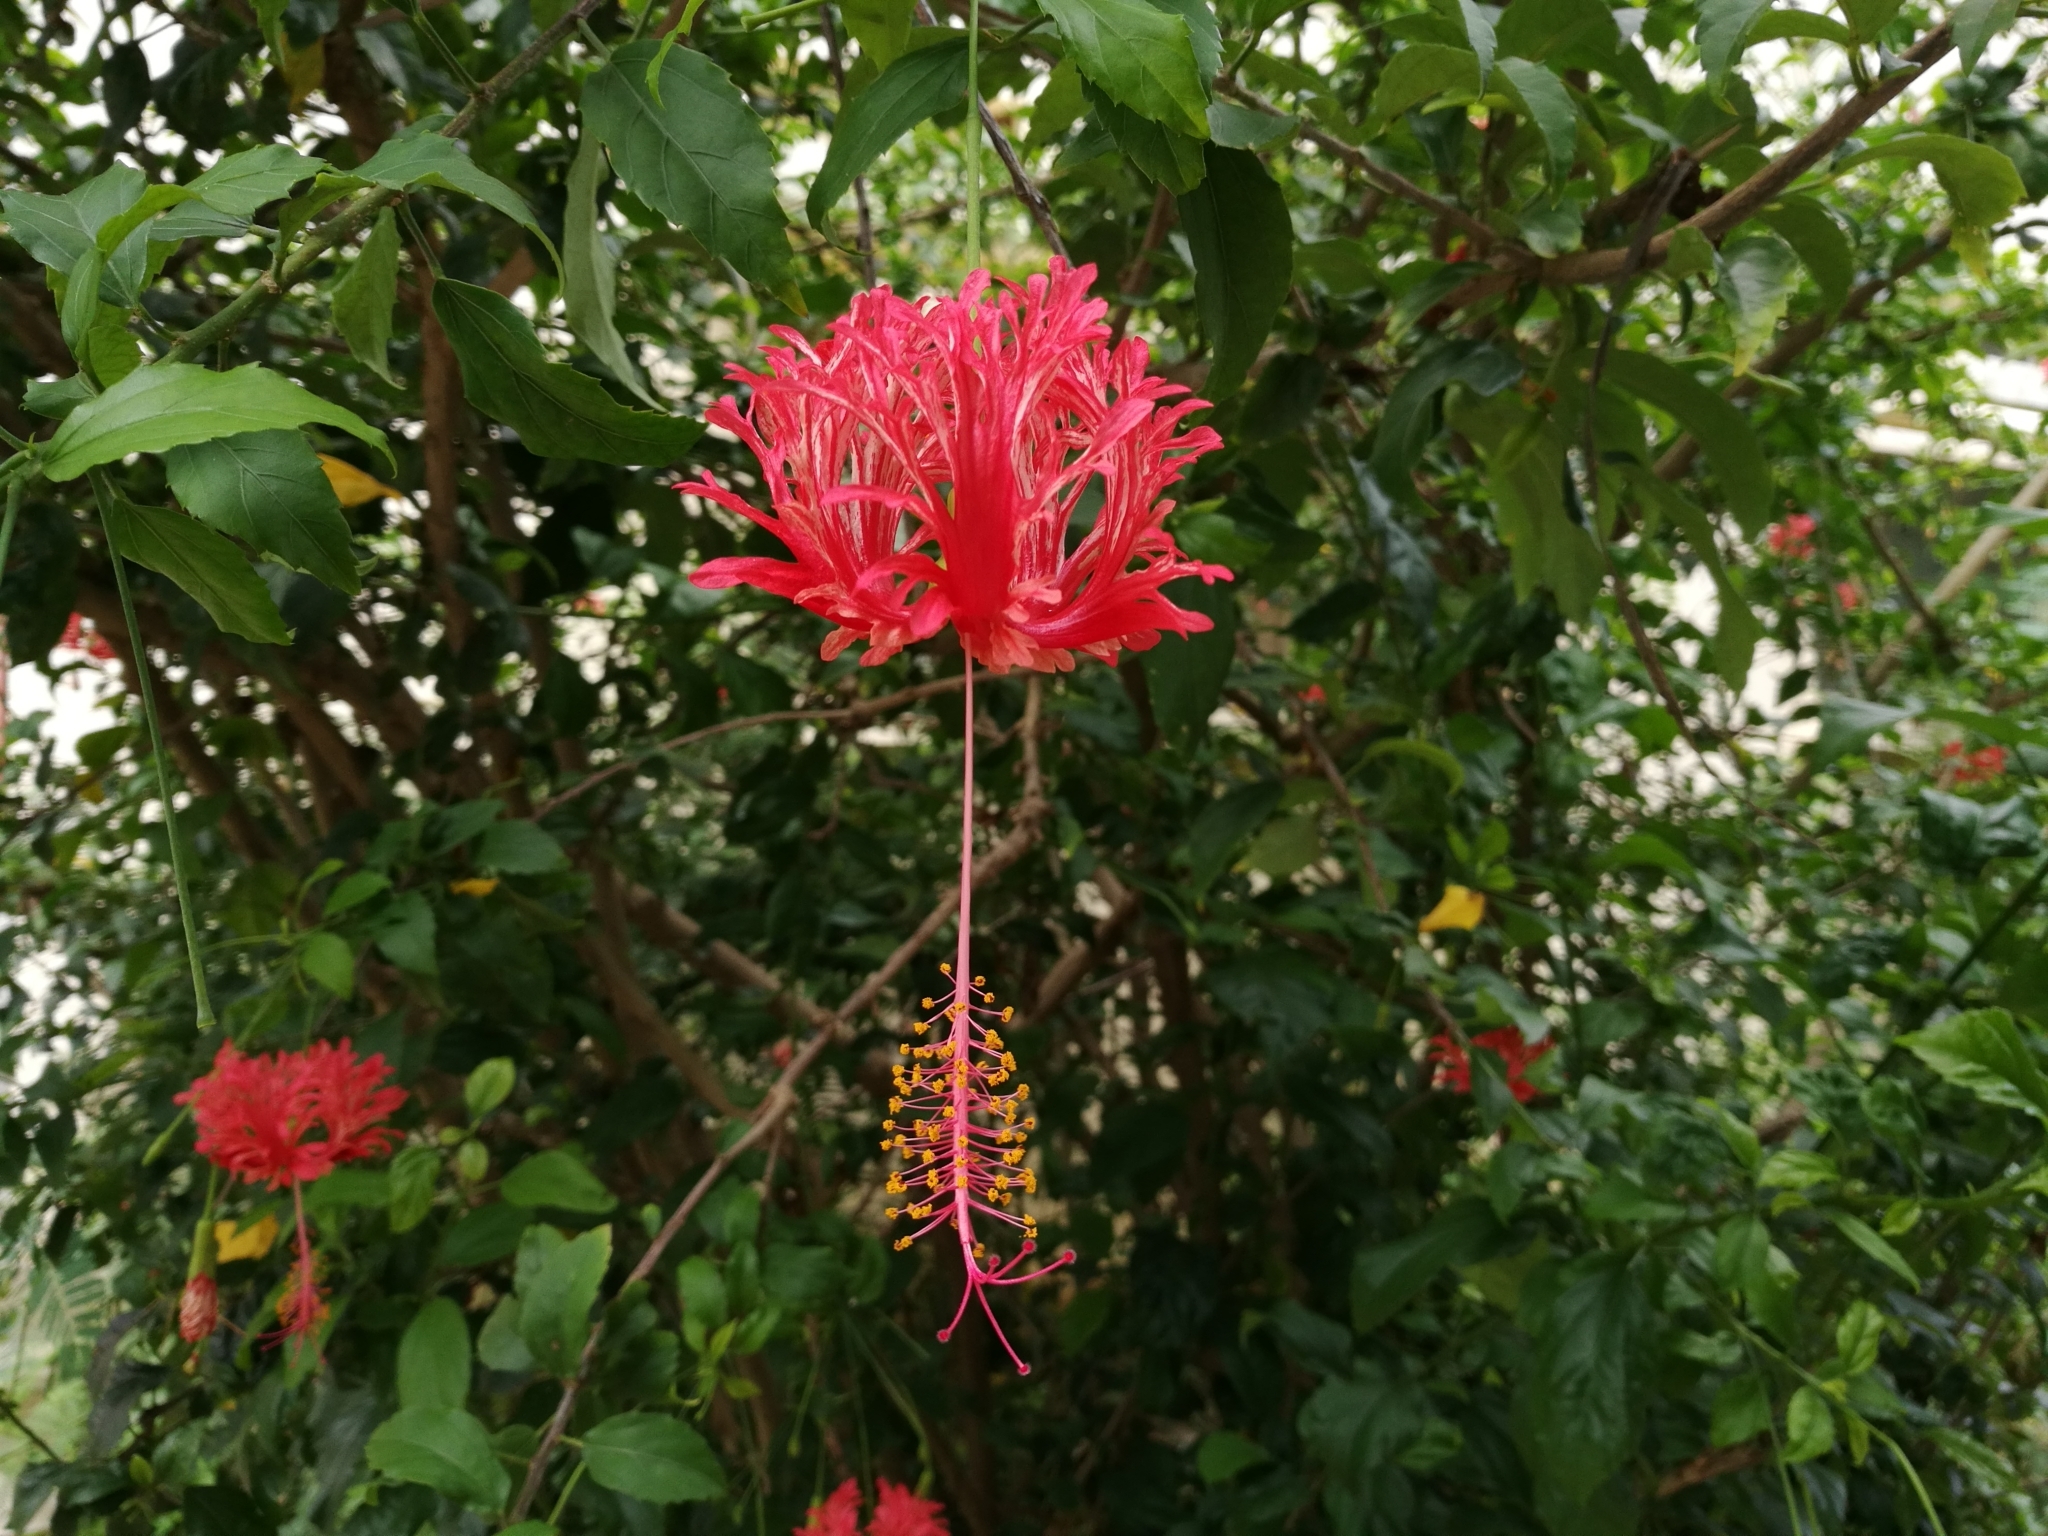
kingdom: Plantae
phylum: Tracheophyta
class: Magnoliopsida
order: Malvales
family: Malvaceae
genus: Hibiscus
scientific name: Hibiscus schizopetalus
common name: Fringed rosemallow
